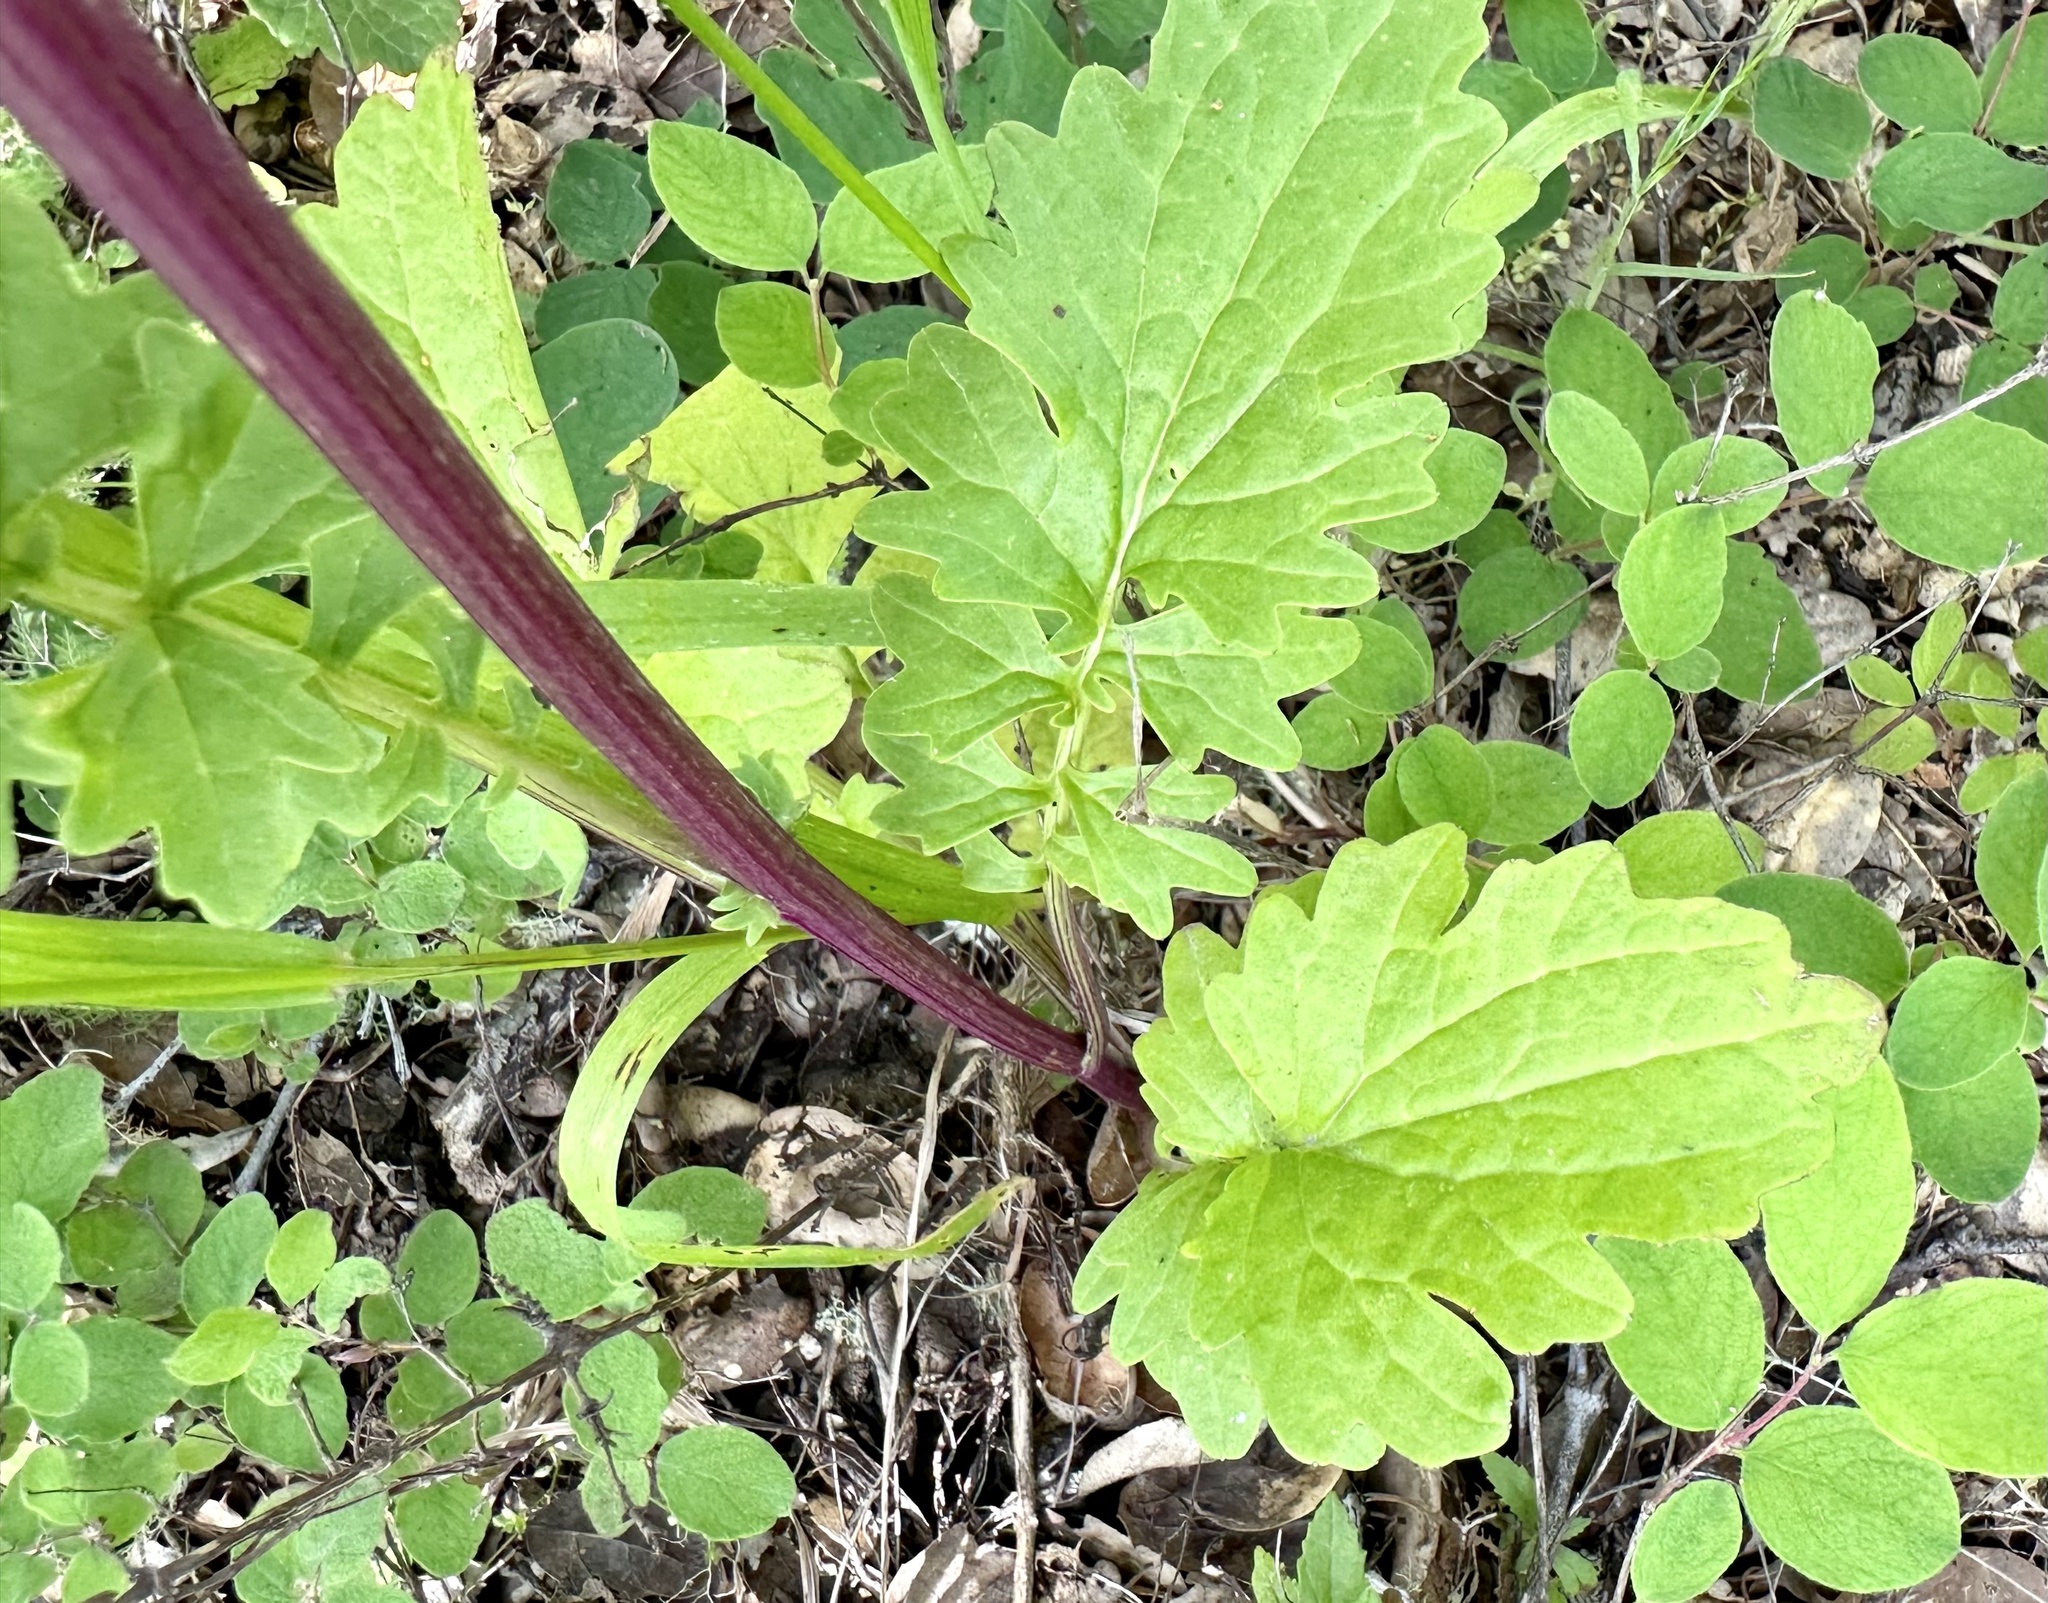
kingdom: Plantae
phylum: Tracheophyta
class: Magnoliopsida
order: Asterales
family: Asteraceae
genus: Packera
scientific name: Packera breweri
